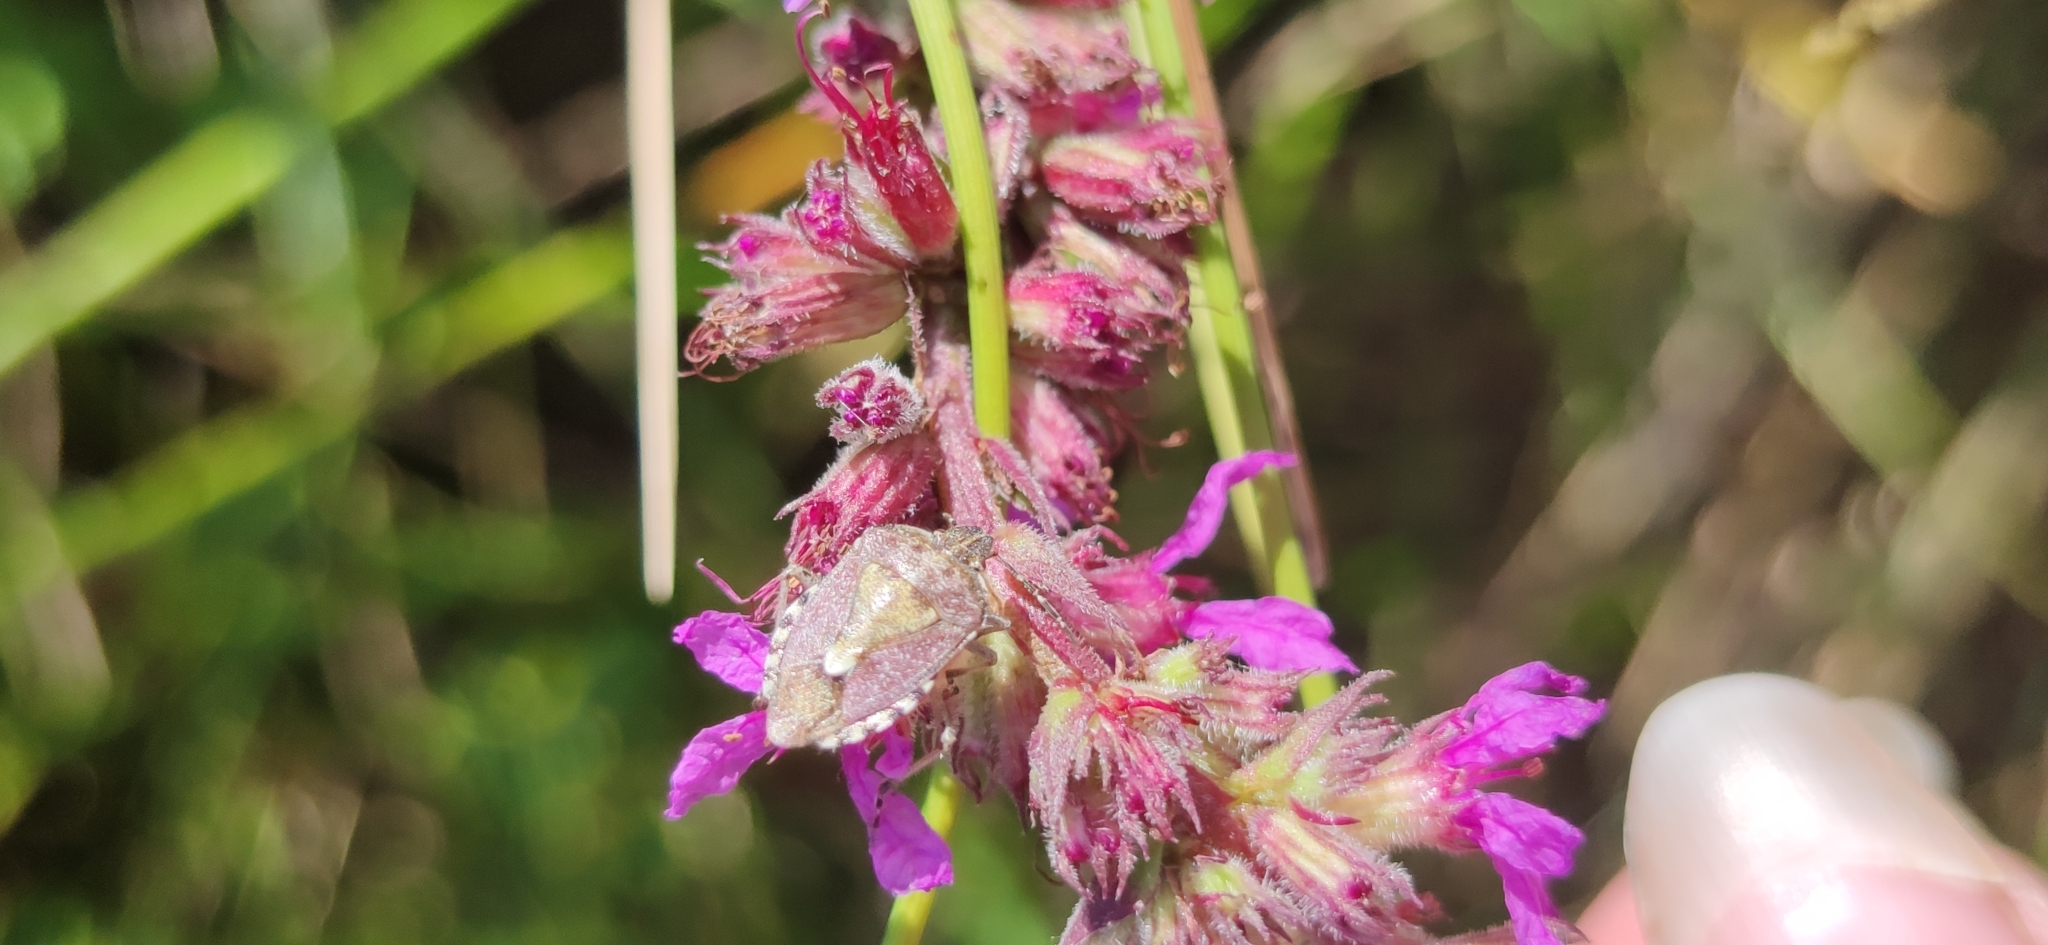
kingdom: Animalia
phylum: Arthropoda
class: Insecta
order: Hemiptera
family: Pentatomidae
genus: Dolycoris
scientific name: Dolycoris baccarum
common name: Sloe bug
